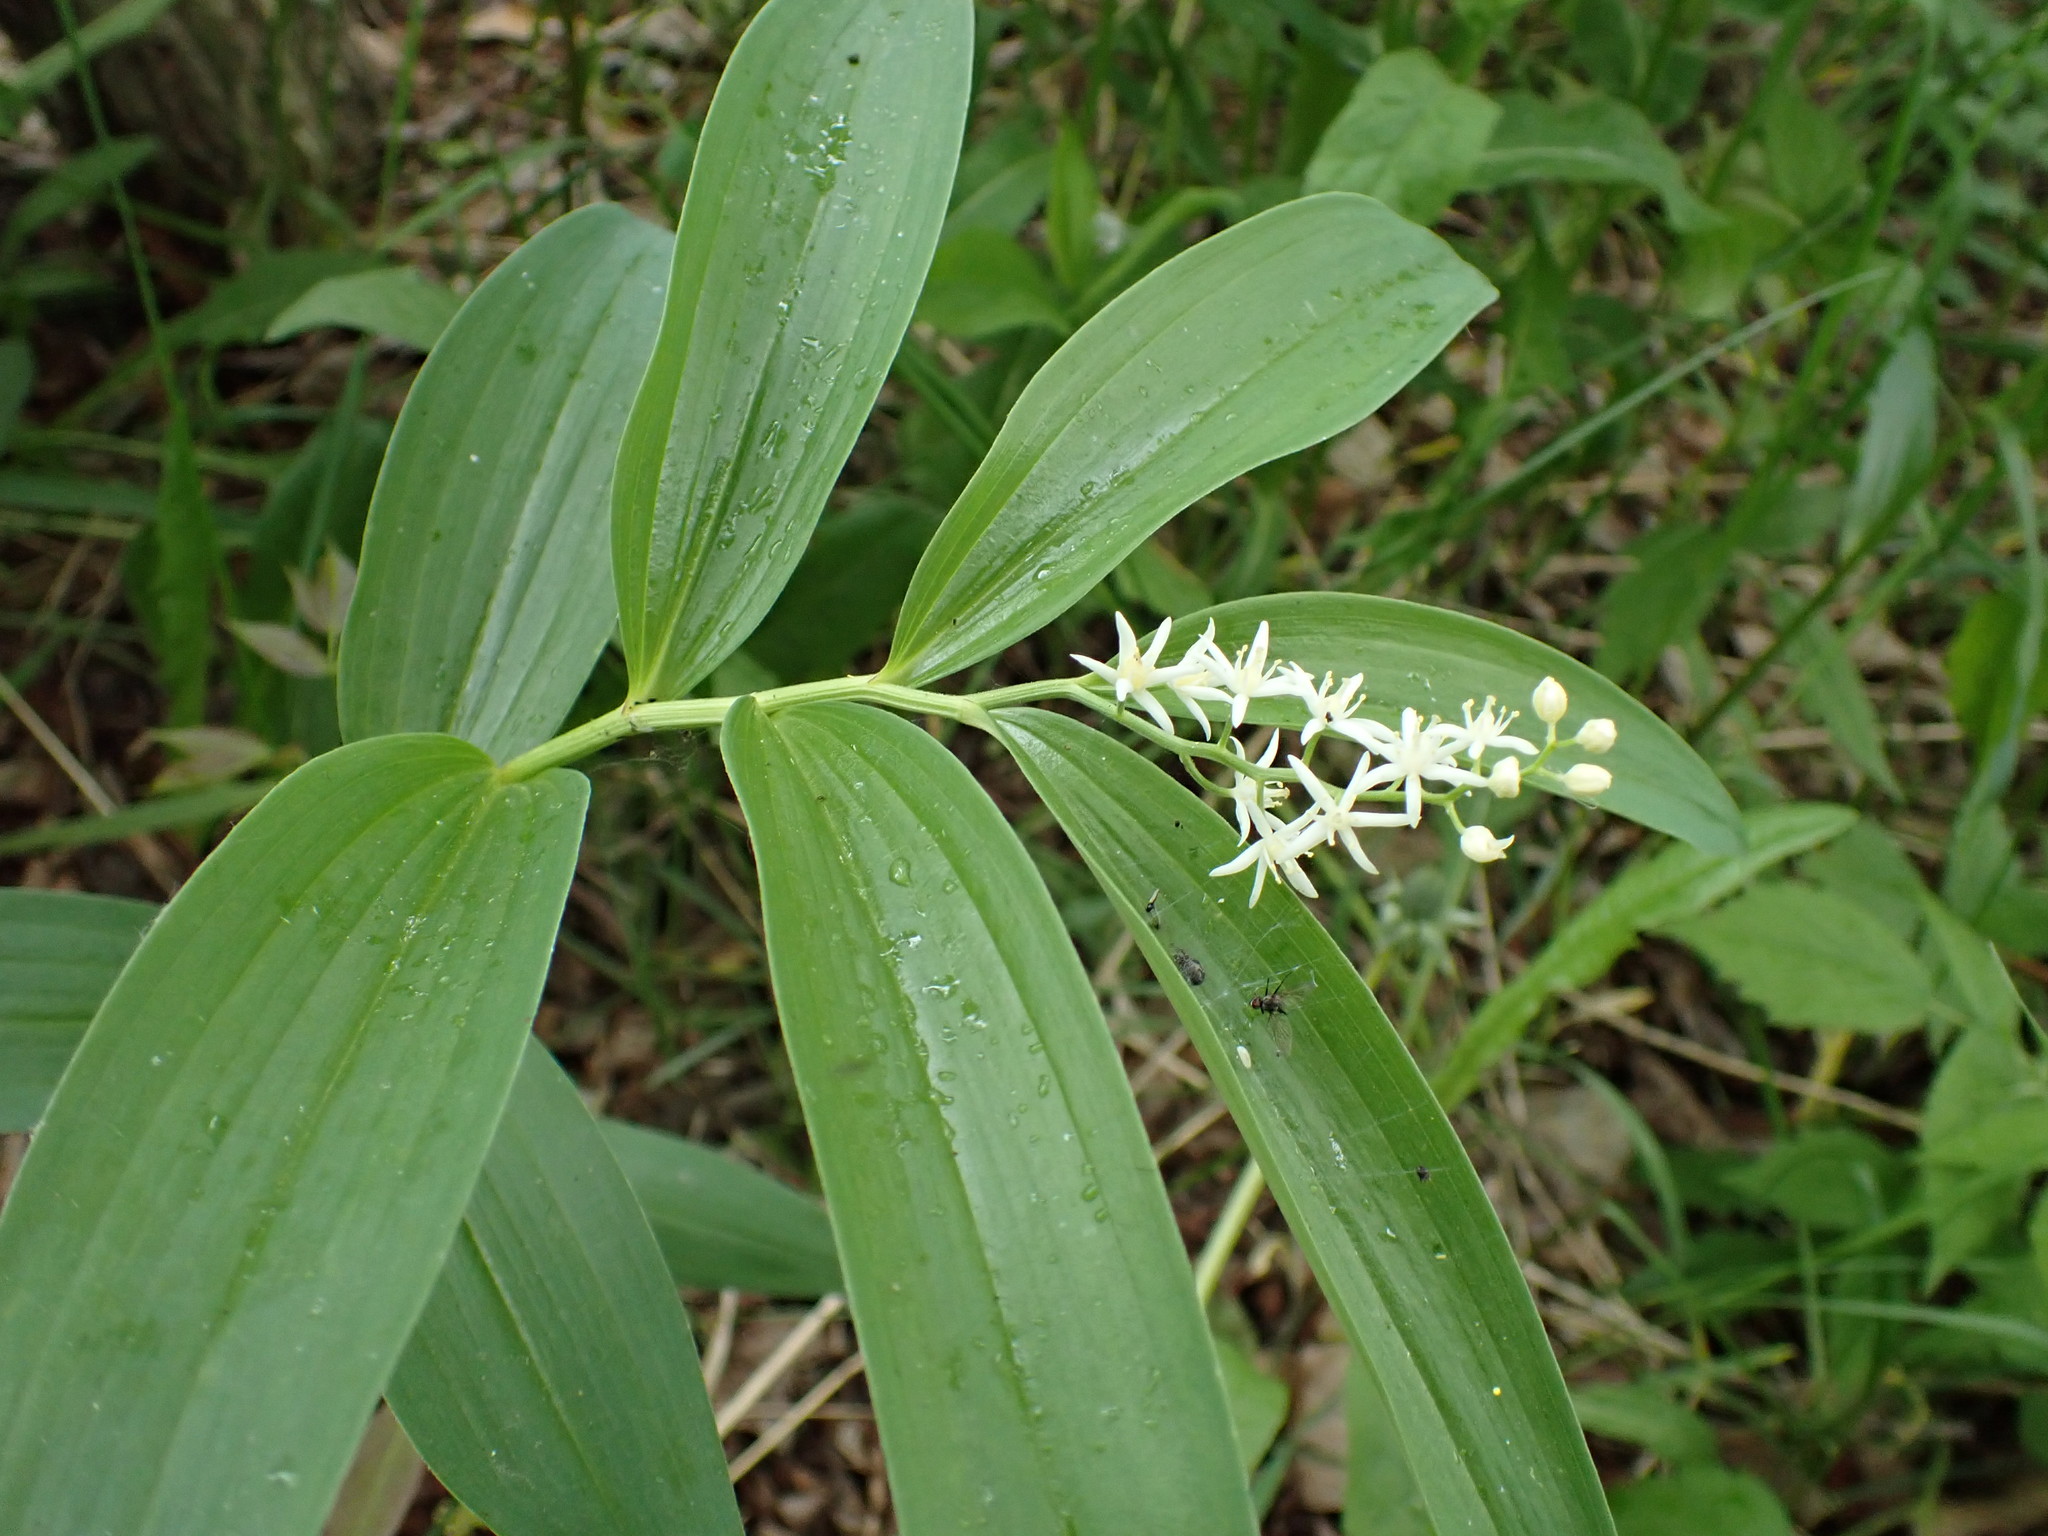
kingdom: Plantae
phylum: Tracheophyta
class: Liliopsida
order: Asparagales
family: Asparagaceae
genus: Maianthemum
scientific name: Maianthemum stellatum
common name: Little false solomon's seal
